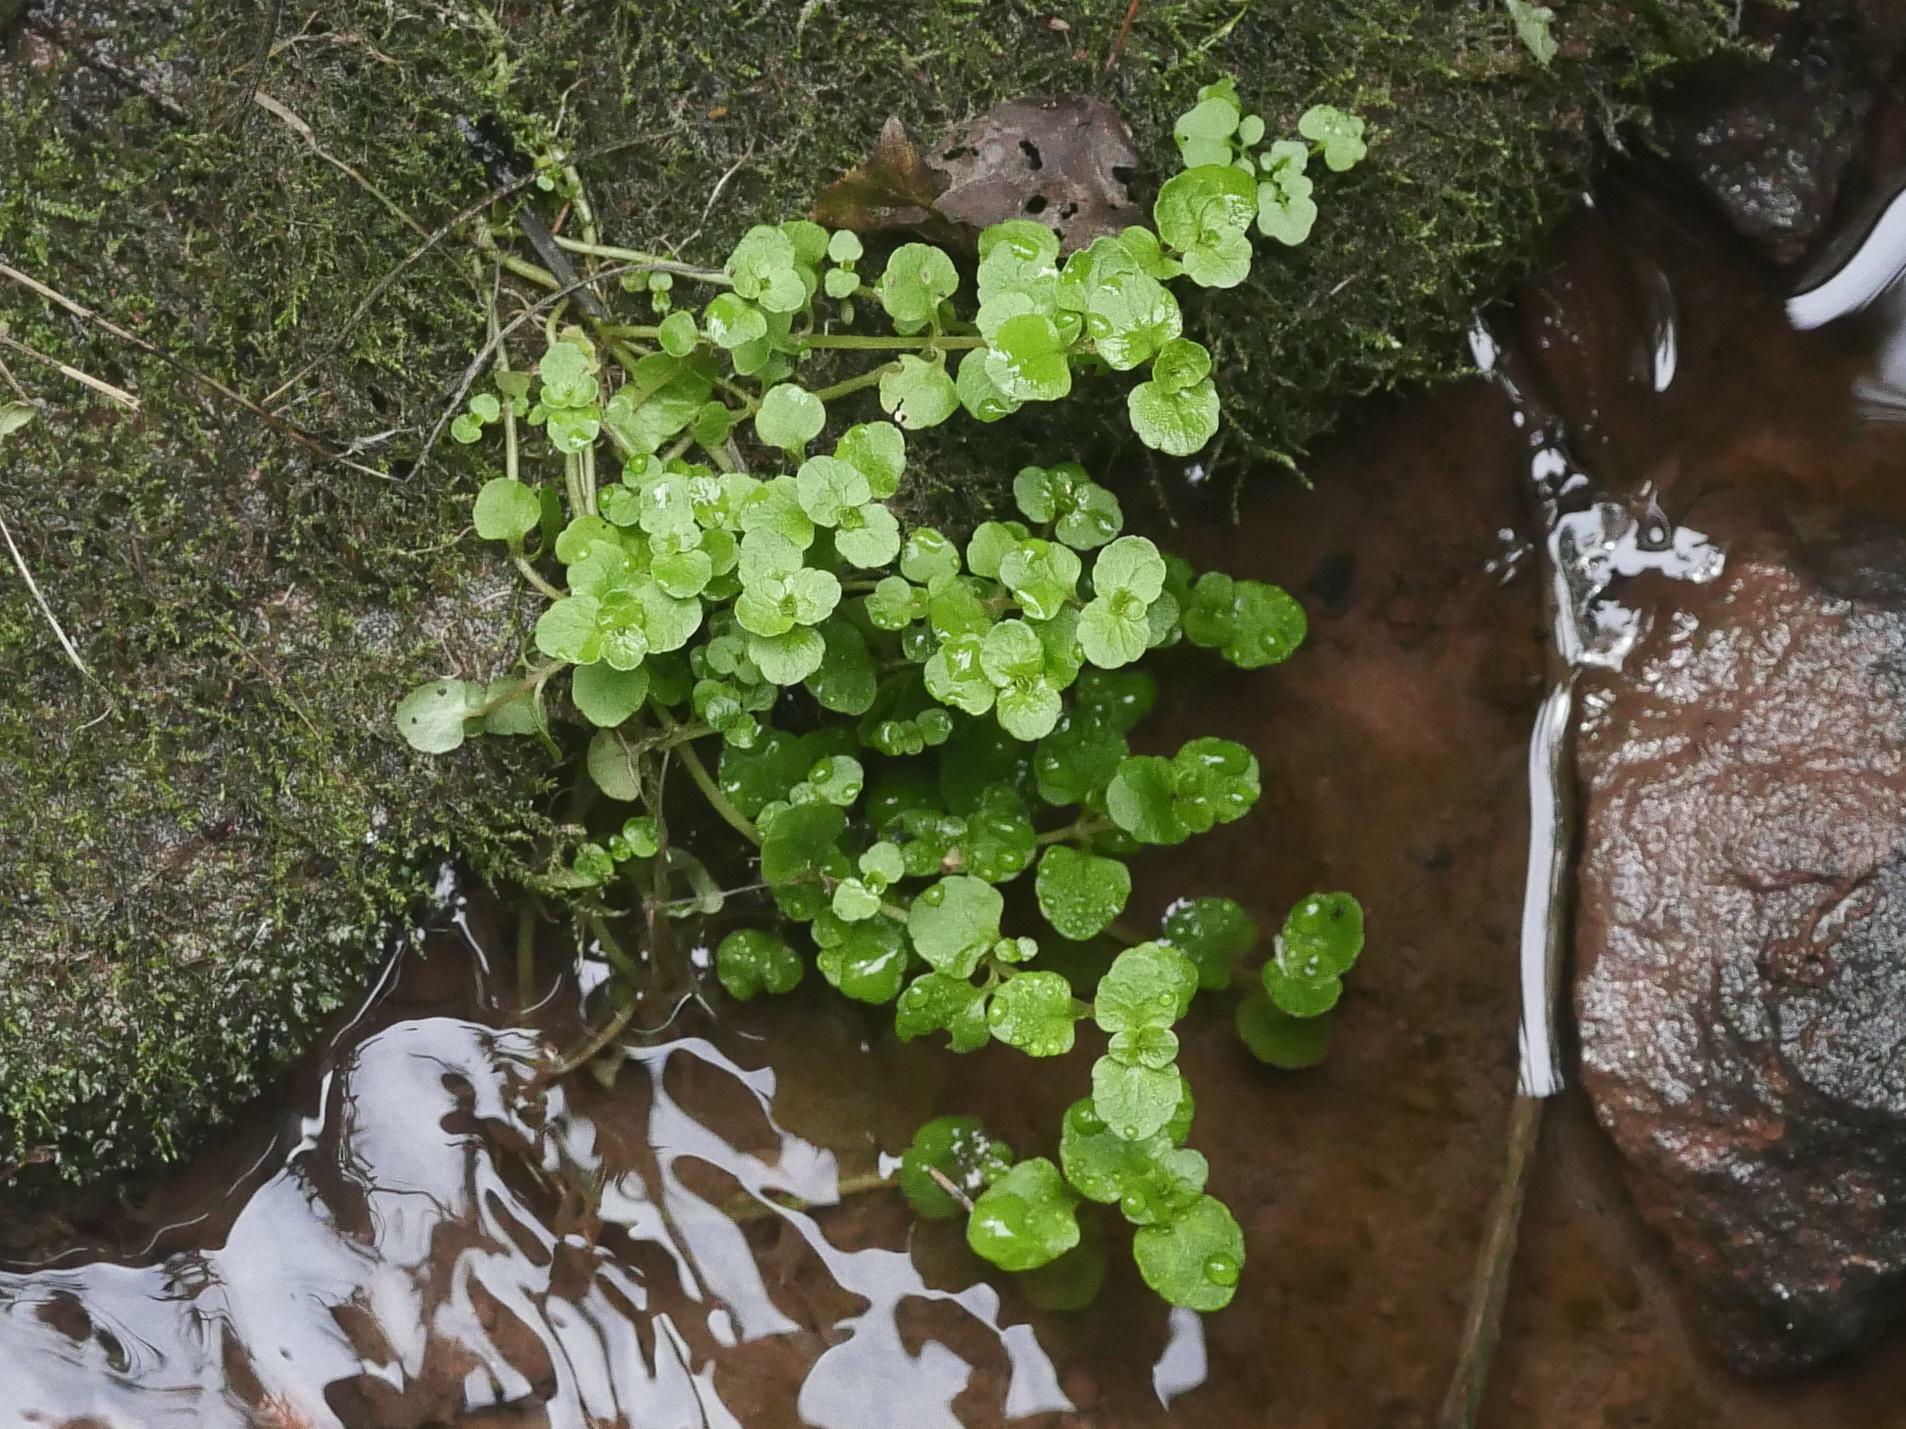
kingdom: Plantae
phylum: Tracheophyta
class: Magnoliopsida
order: Saxifragales
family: Saxifragaceae
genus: Chrysosplenium
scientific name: Chrysosplenium americanum
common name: American golden-saxifrage
